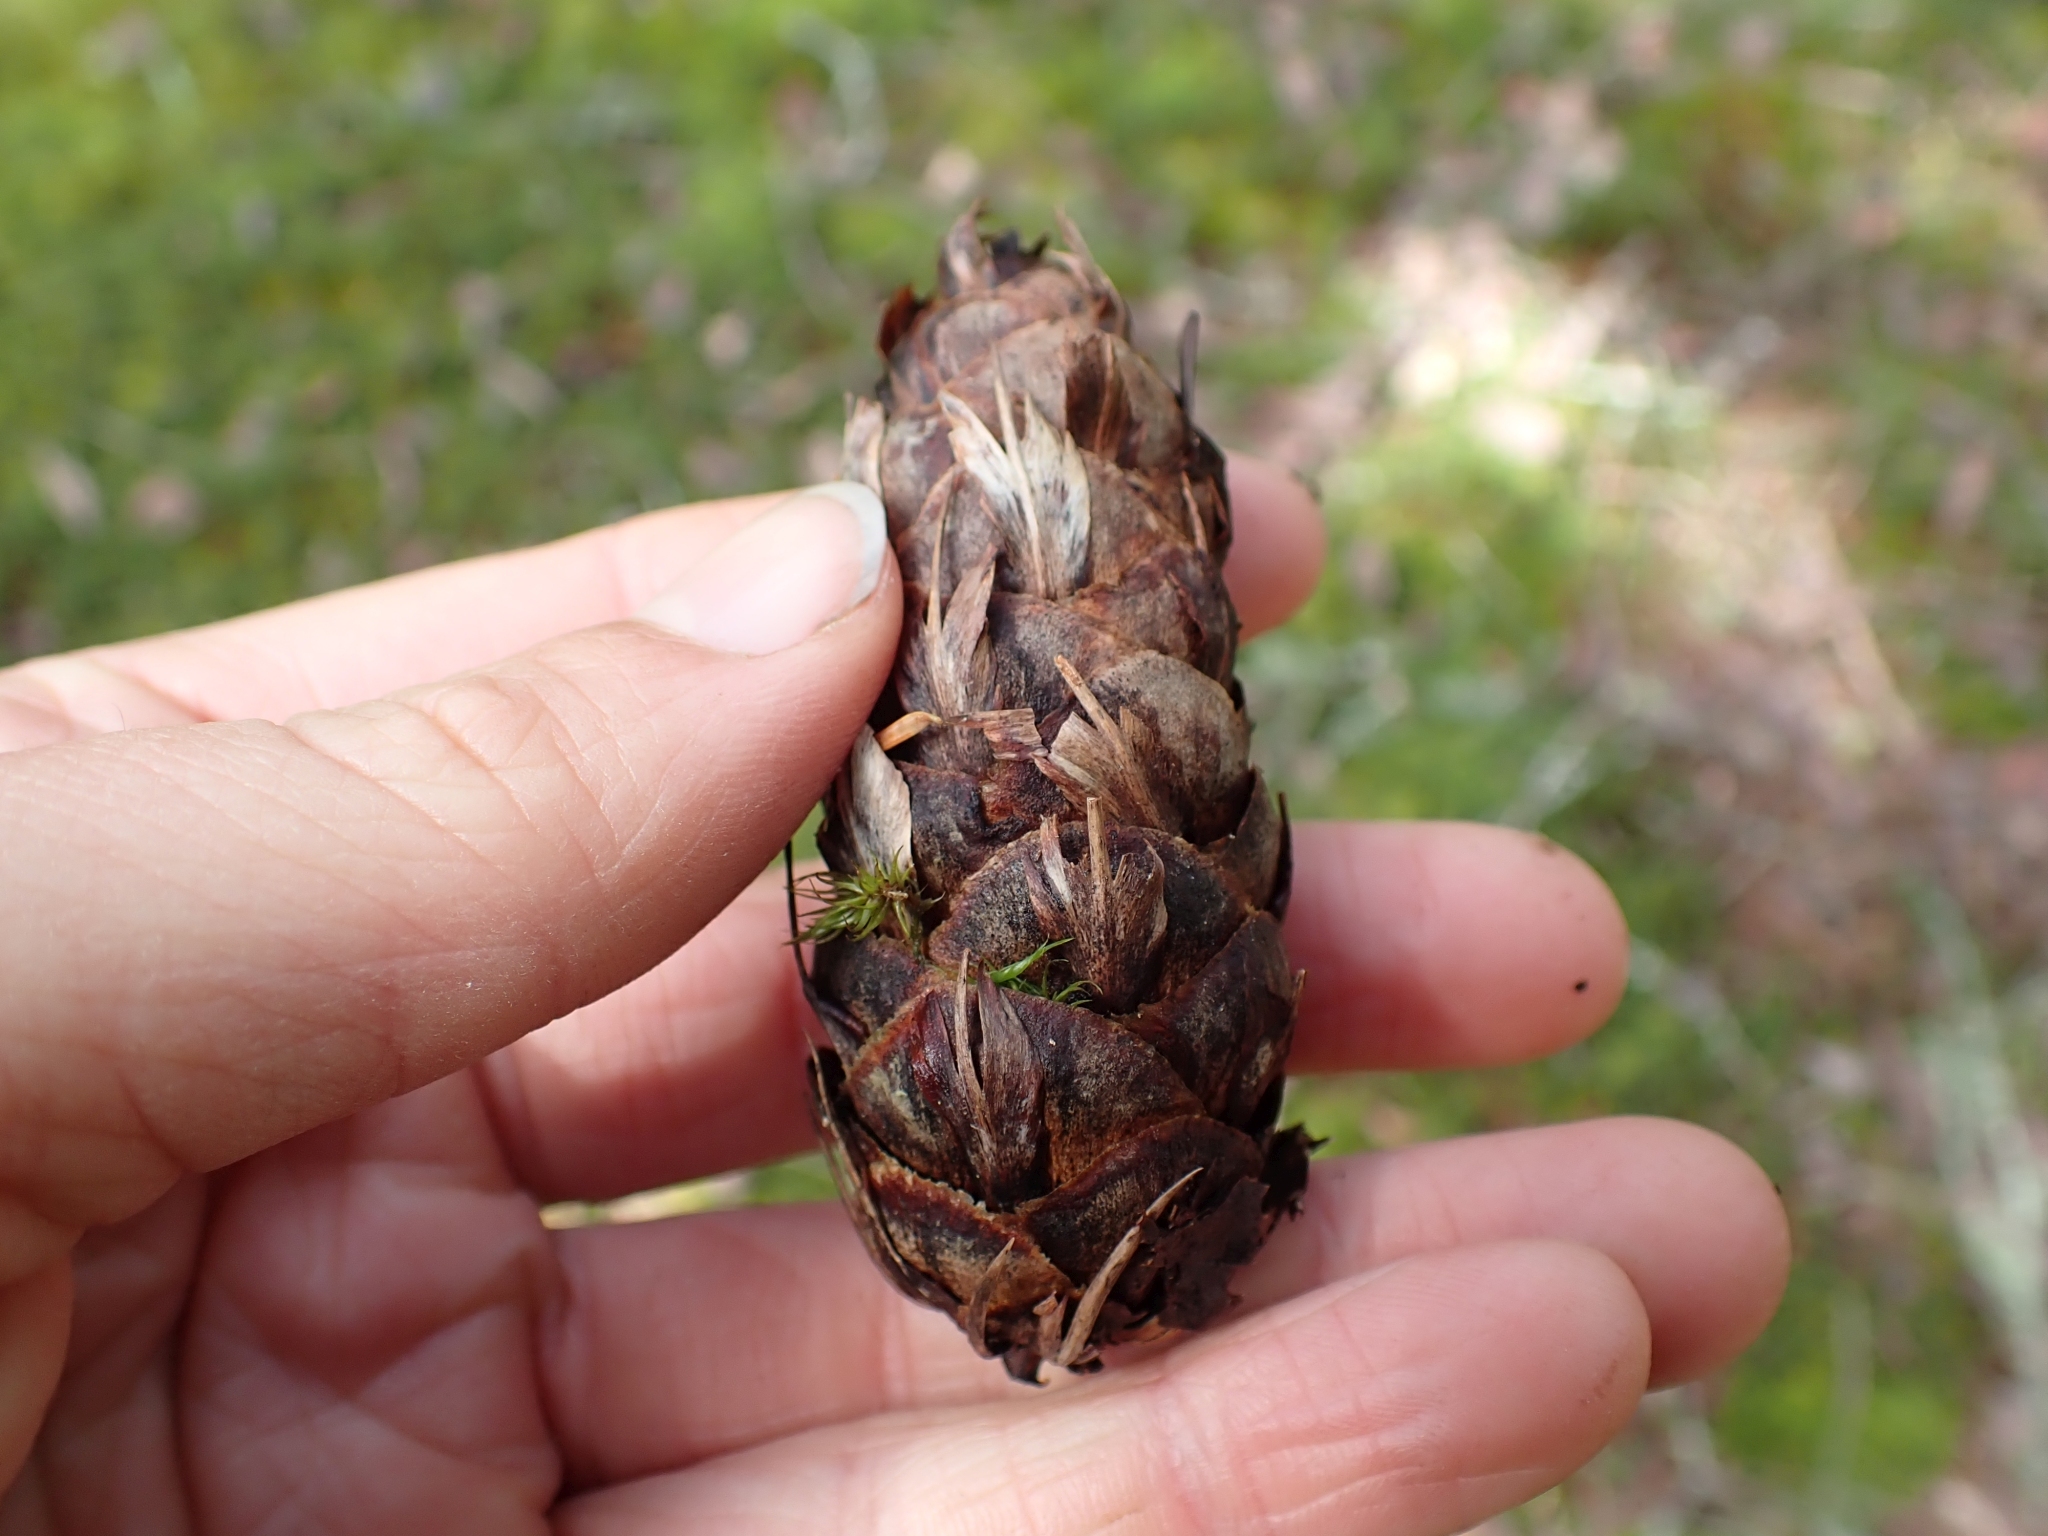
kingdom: Plantae
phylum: Tracheophyta
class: Pinopsida
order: Pinales
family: Pinaceae
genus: Pseudotsuga
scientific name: Pseudotsuga menziesii
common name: Douglas fir
